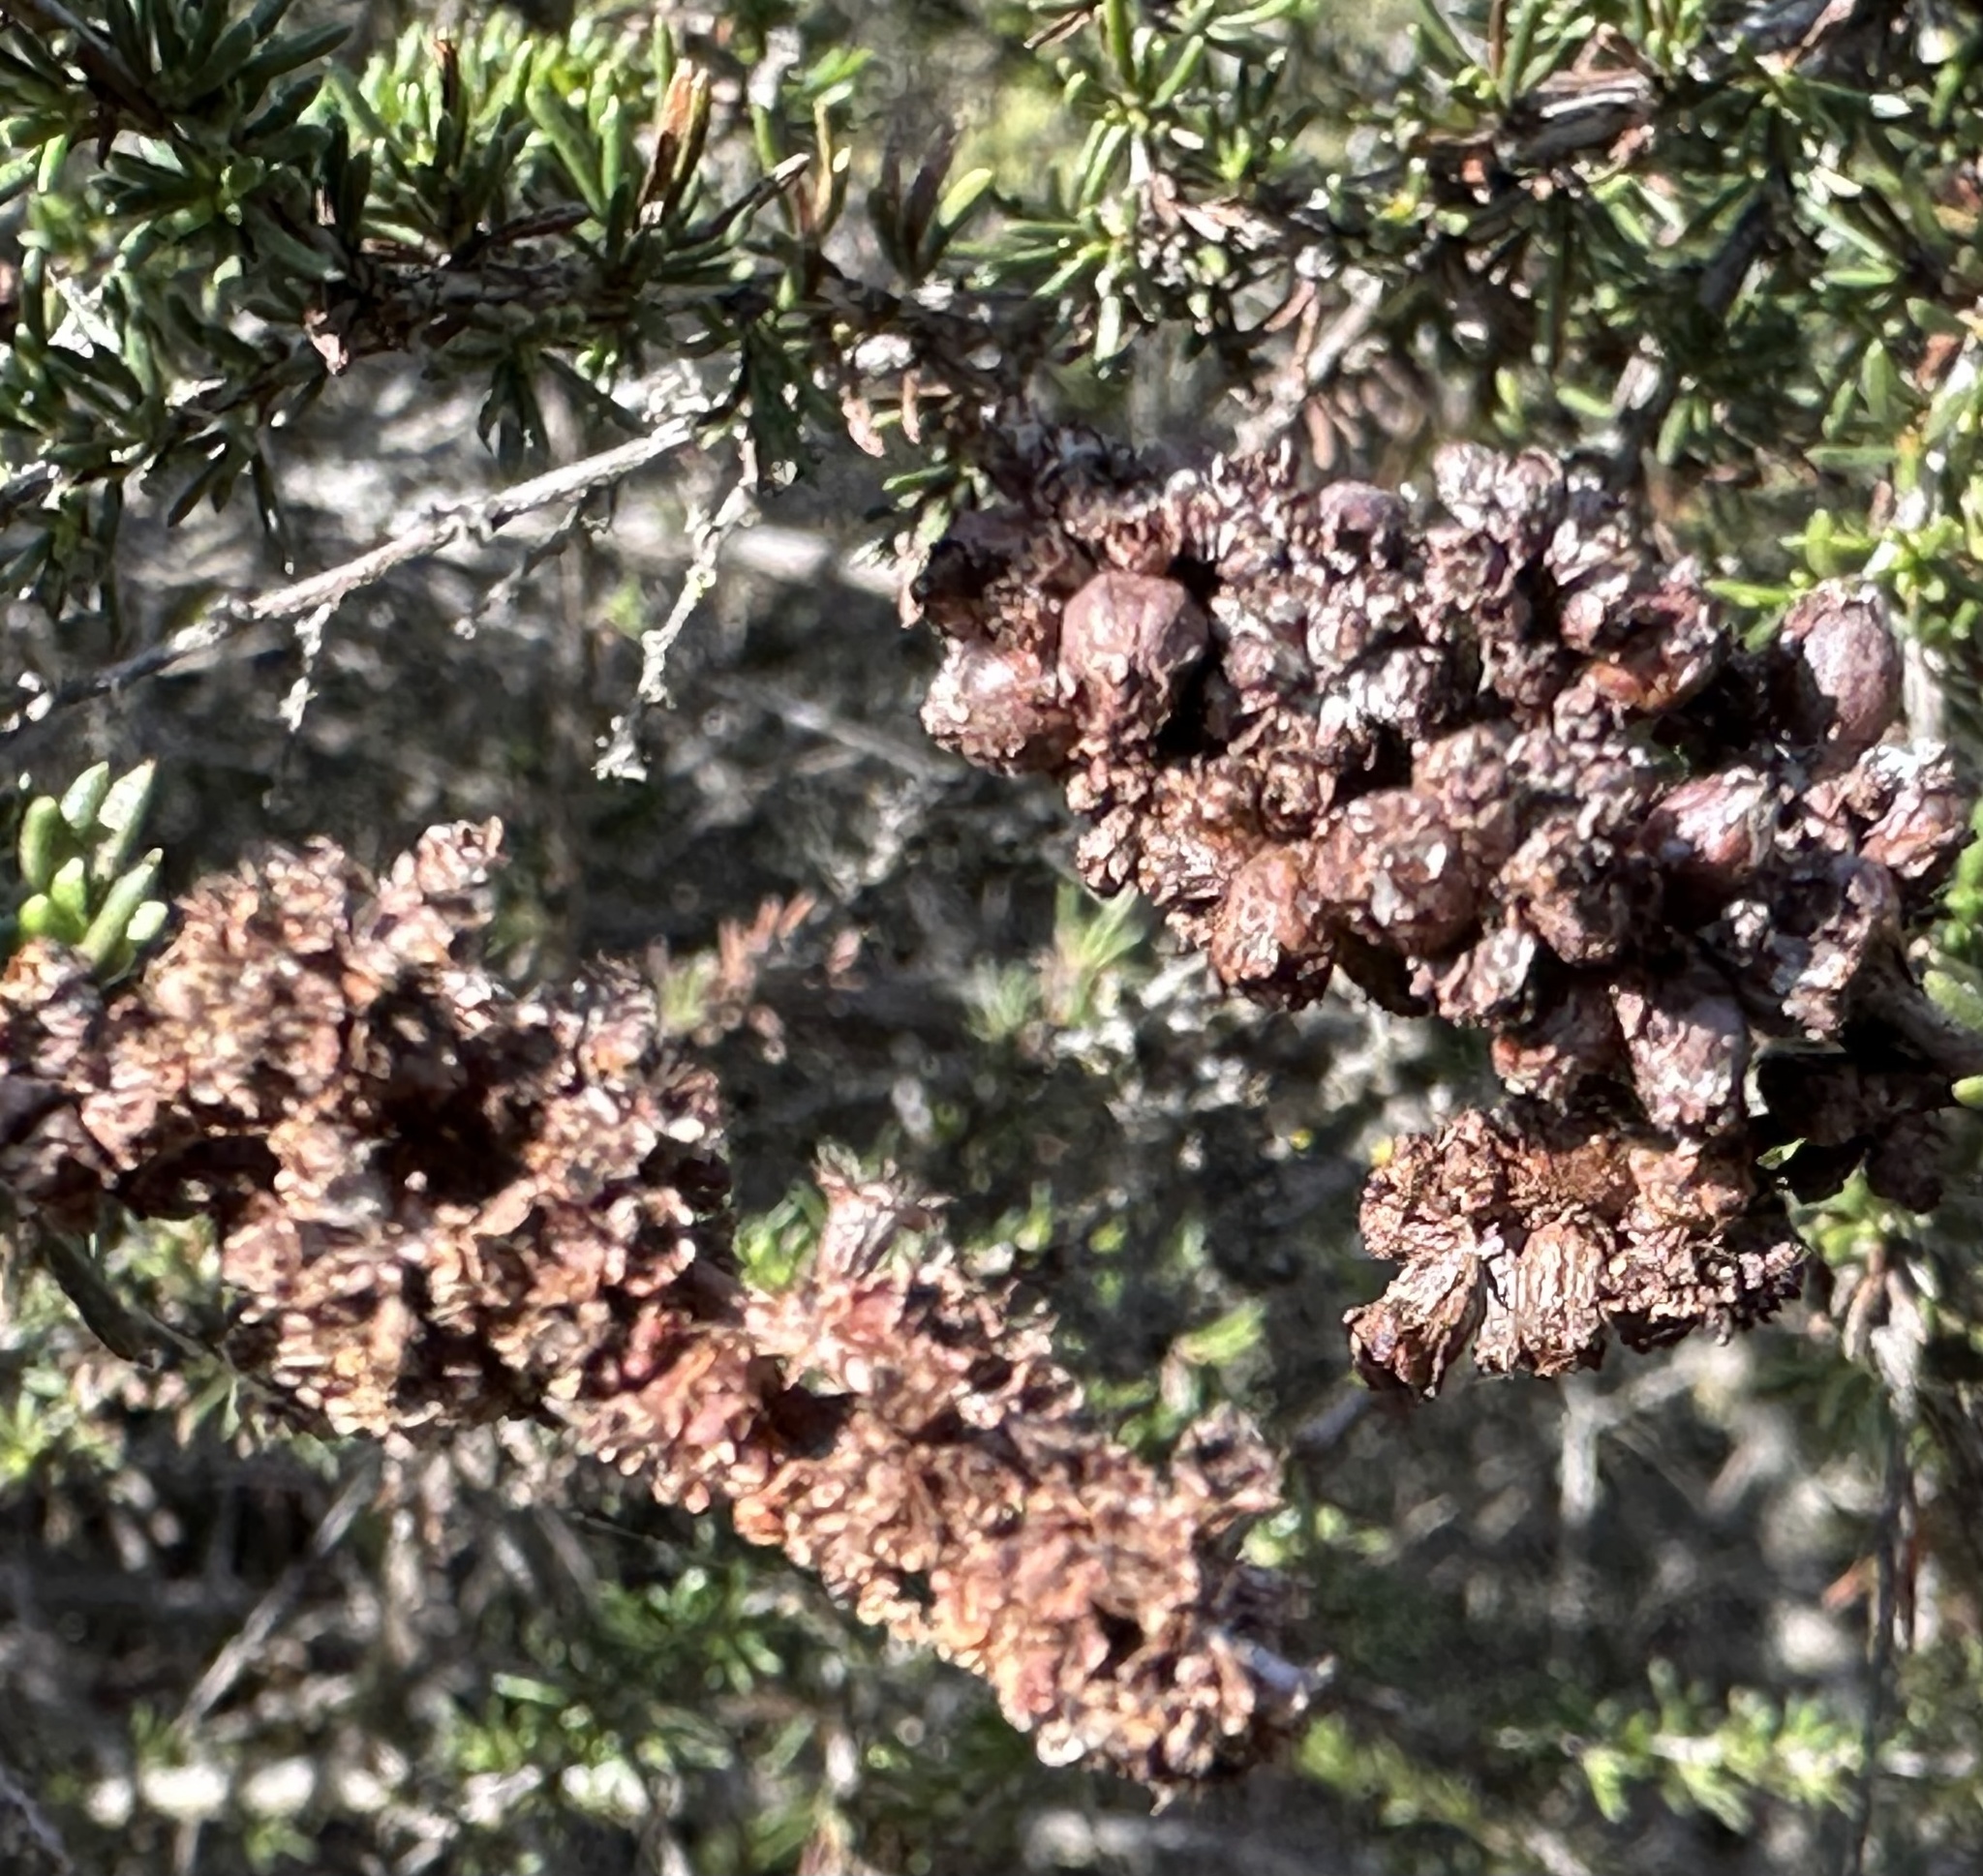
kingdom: Animalia
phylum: Arthropoda
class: Insecta
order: Diptera
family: Cecidomyiidae
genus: Asphondylia
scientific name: Asphondylia adenostoma
